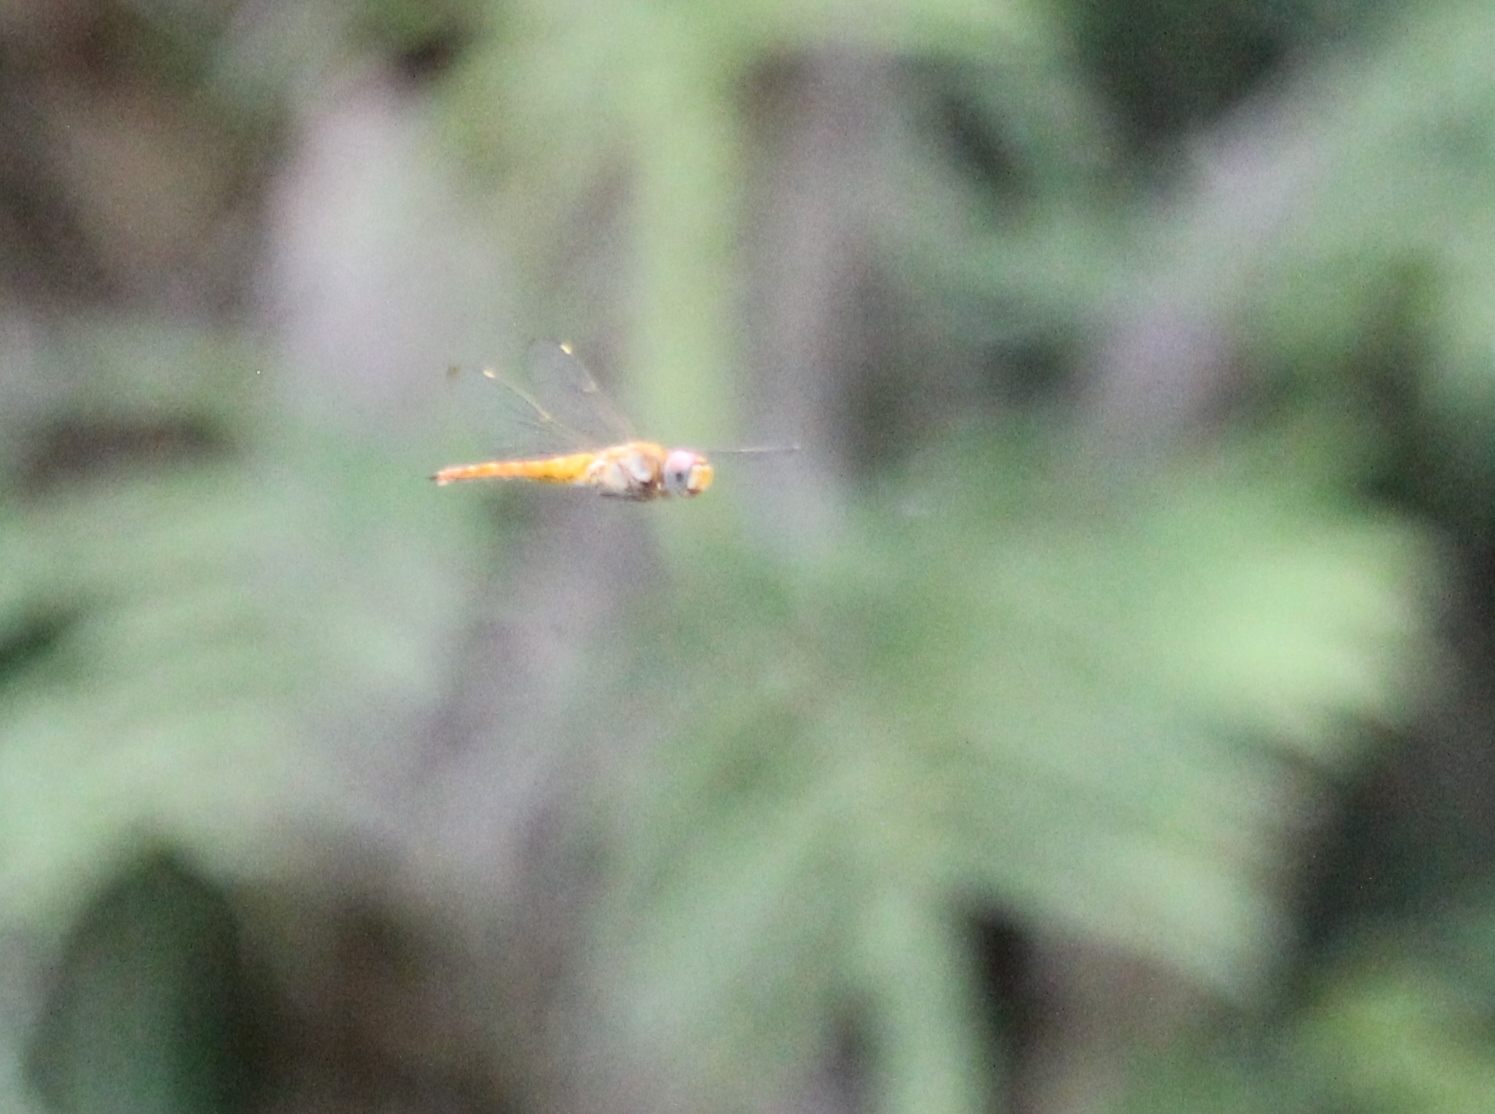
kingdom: Animalia
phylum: Arthropoda
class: Insecta
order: Odonata
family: Libellulidae
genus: Pantala
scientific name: Pantala flavescens
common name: Wandering glider
